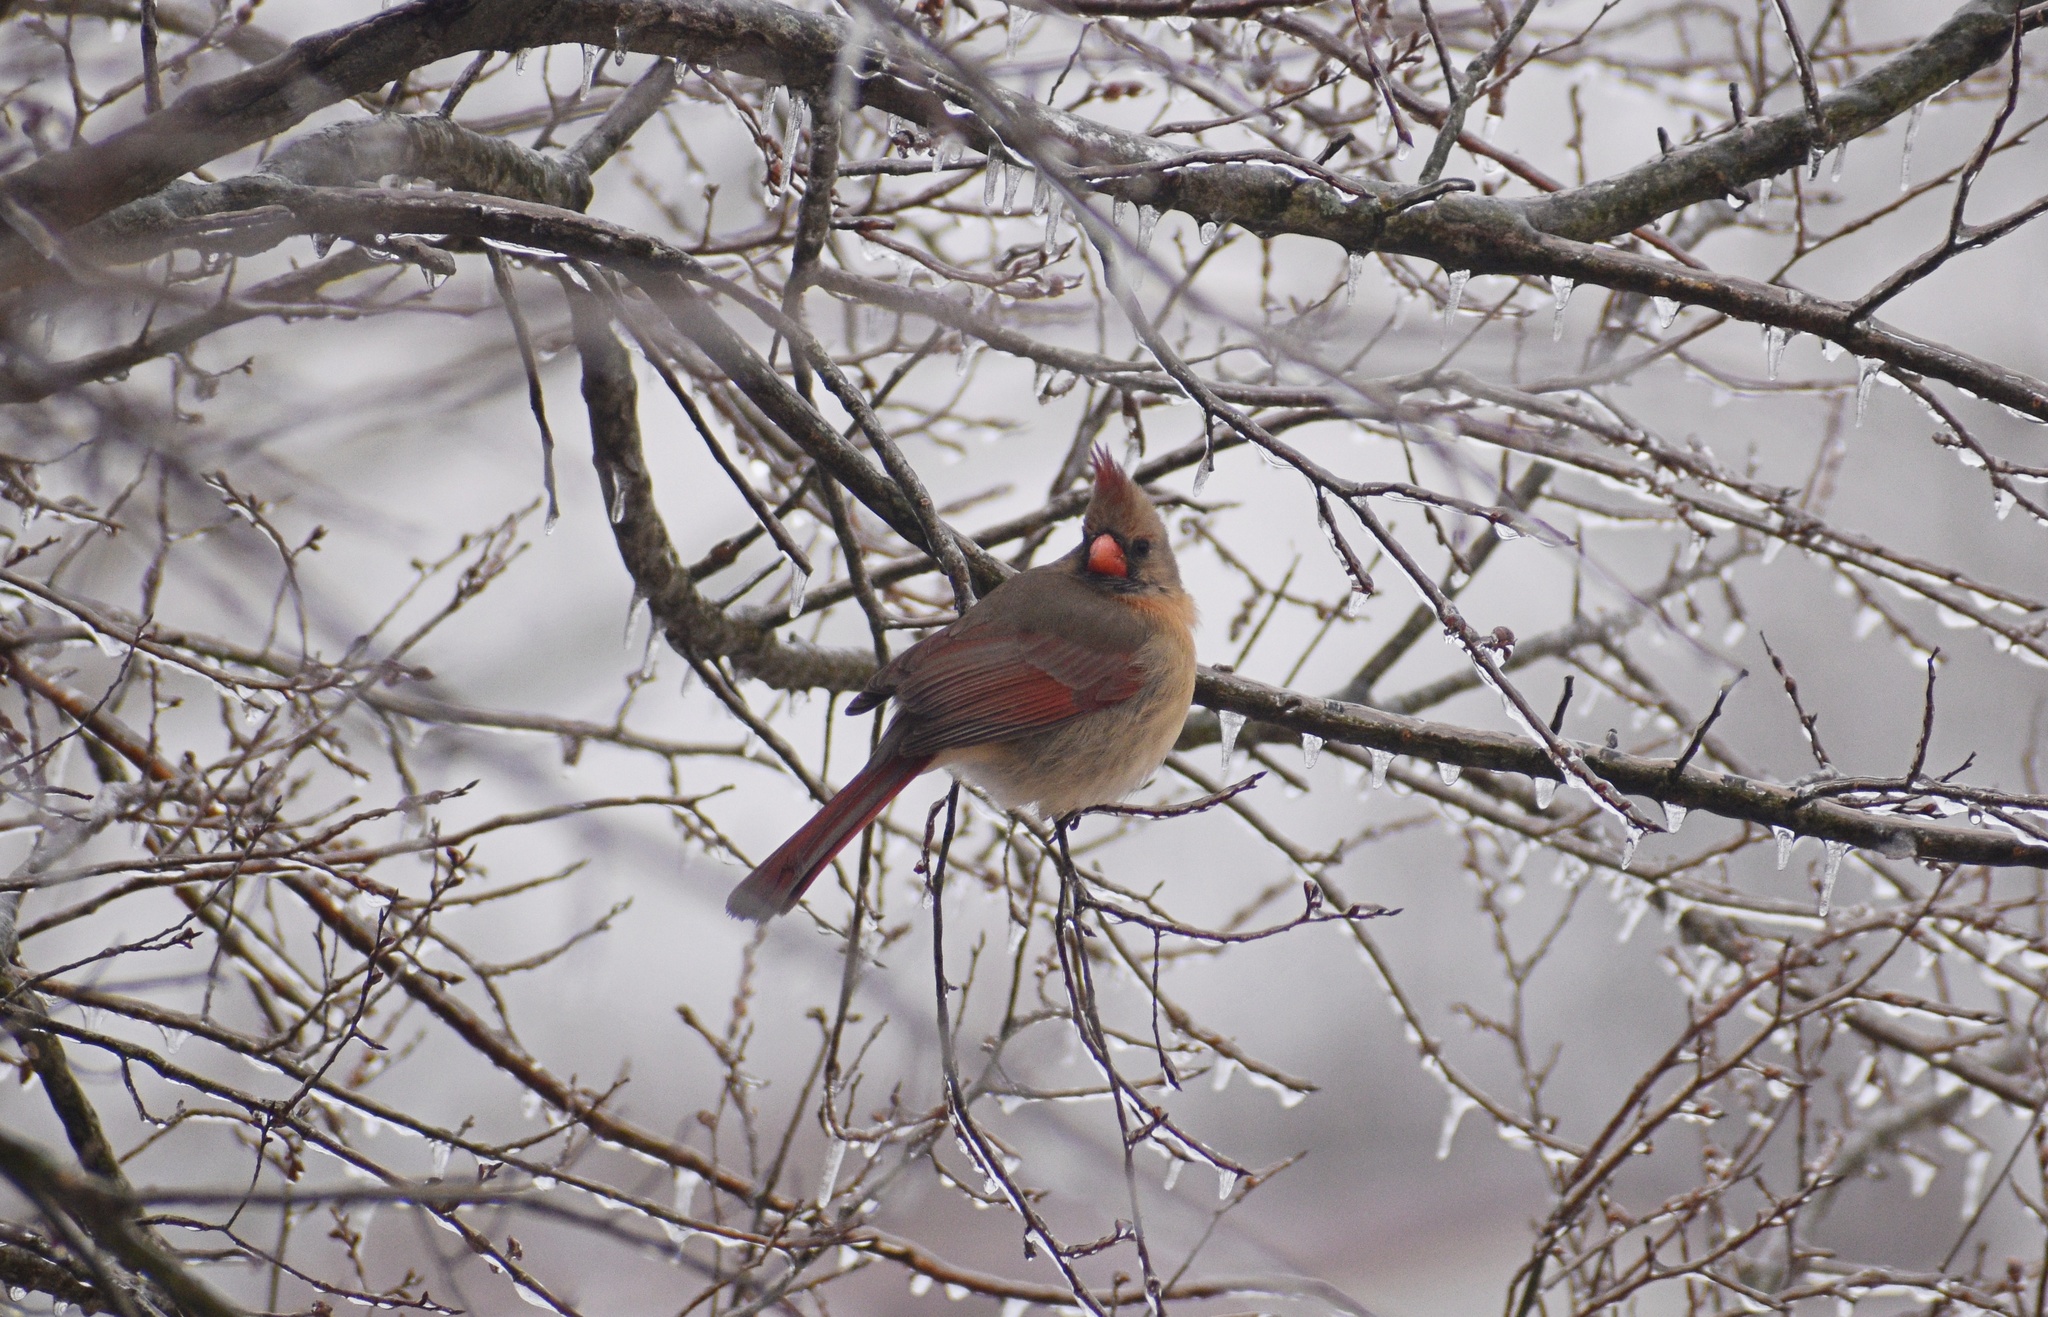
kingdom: Animalia
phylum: Chordata
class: Aves
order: Passeriformes
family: Cardinalidae
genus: Cardinalis
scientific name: Cardinalis cardinalis
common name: Northern cardinal
